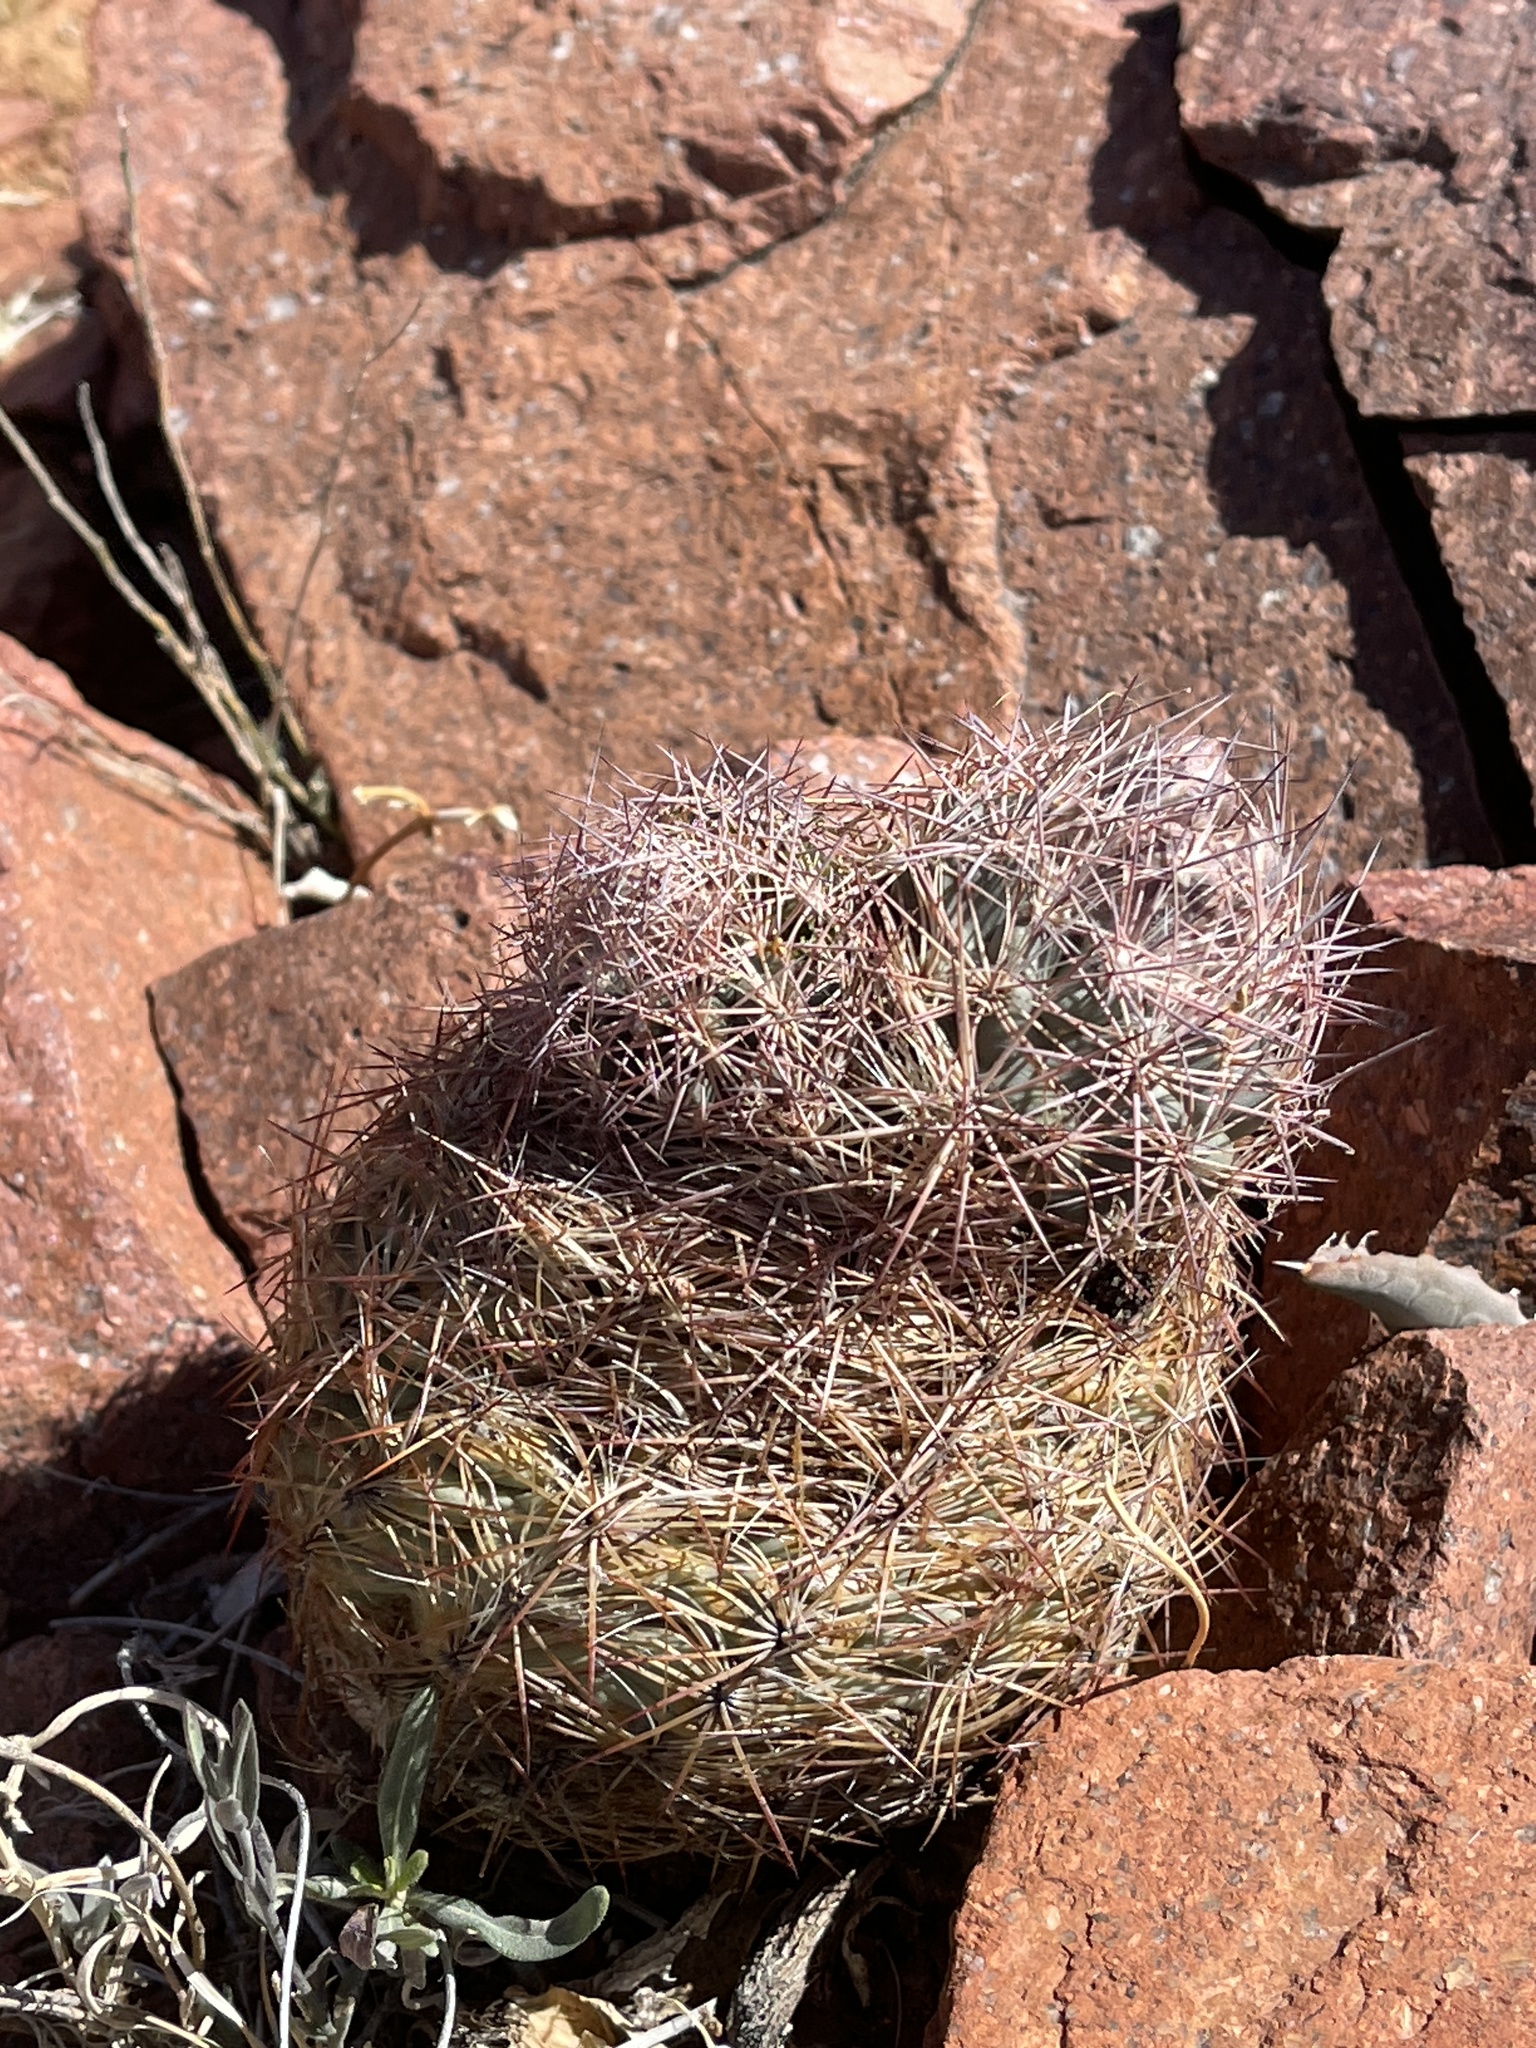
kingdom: Plantae
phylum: Tracheophyta
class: Magnoliopsida
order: Caryophyllales
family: Cactaceae
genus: Sclerocactus
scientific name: Sclerocactus intertextus
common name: White fish-hook cactus
